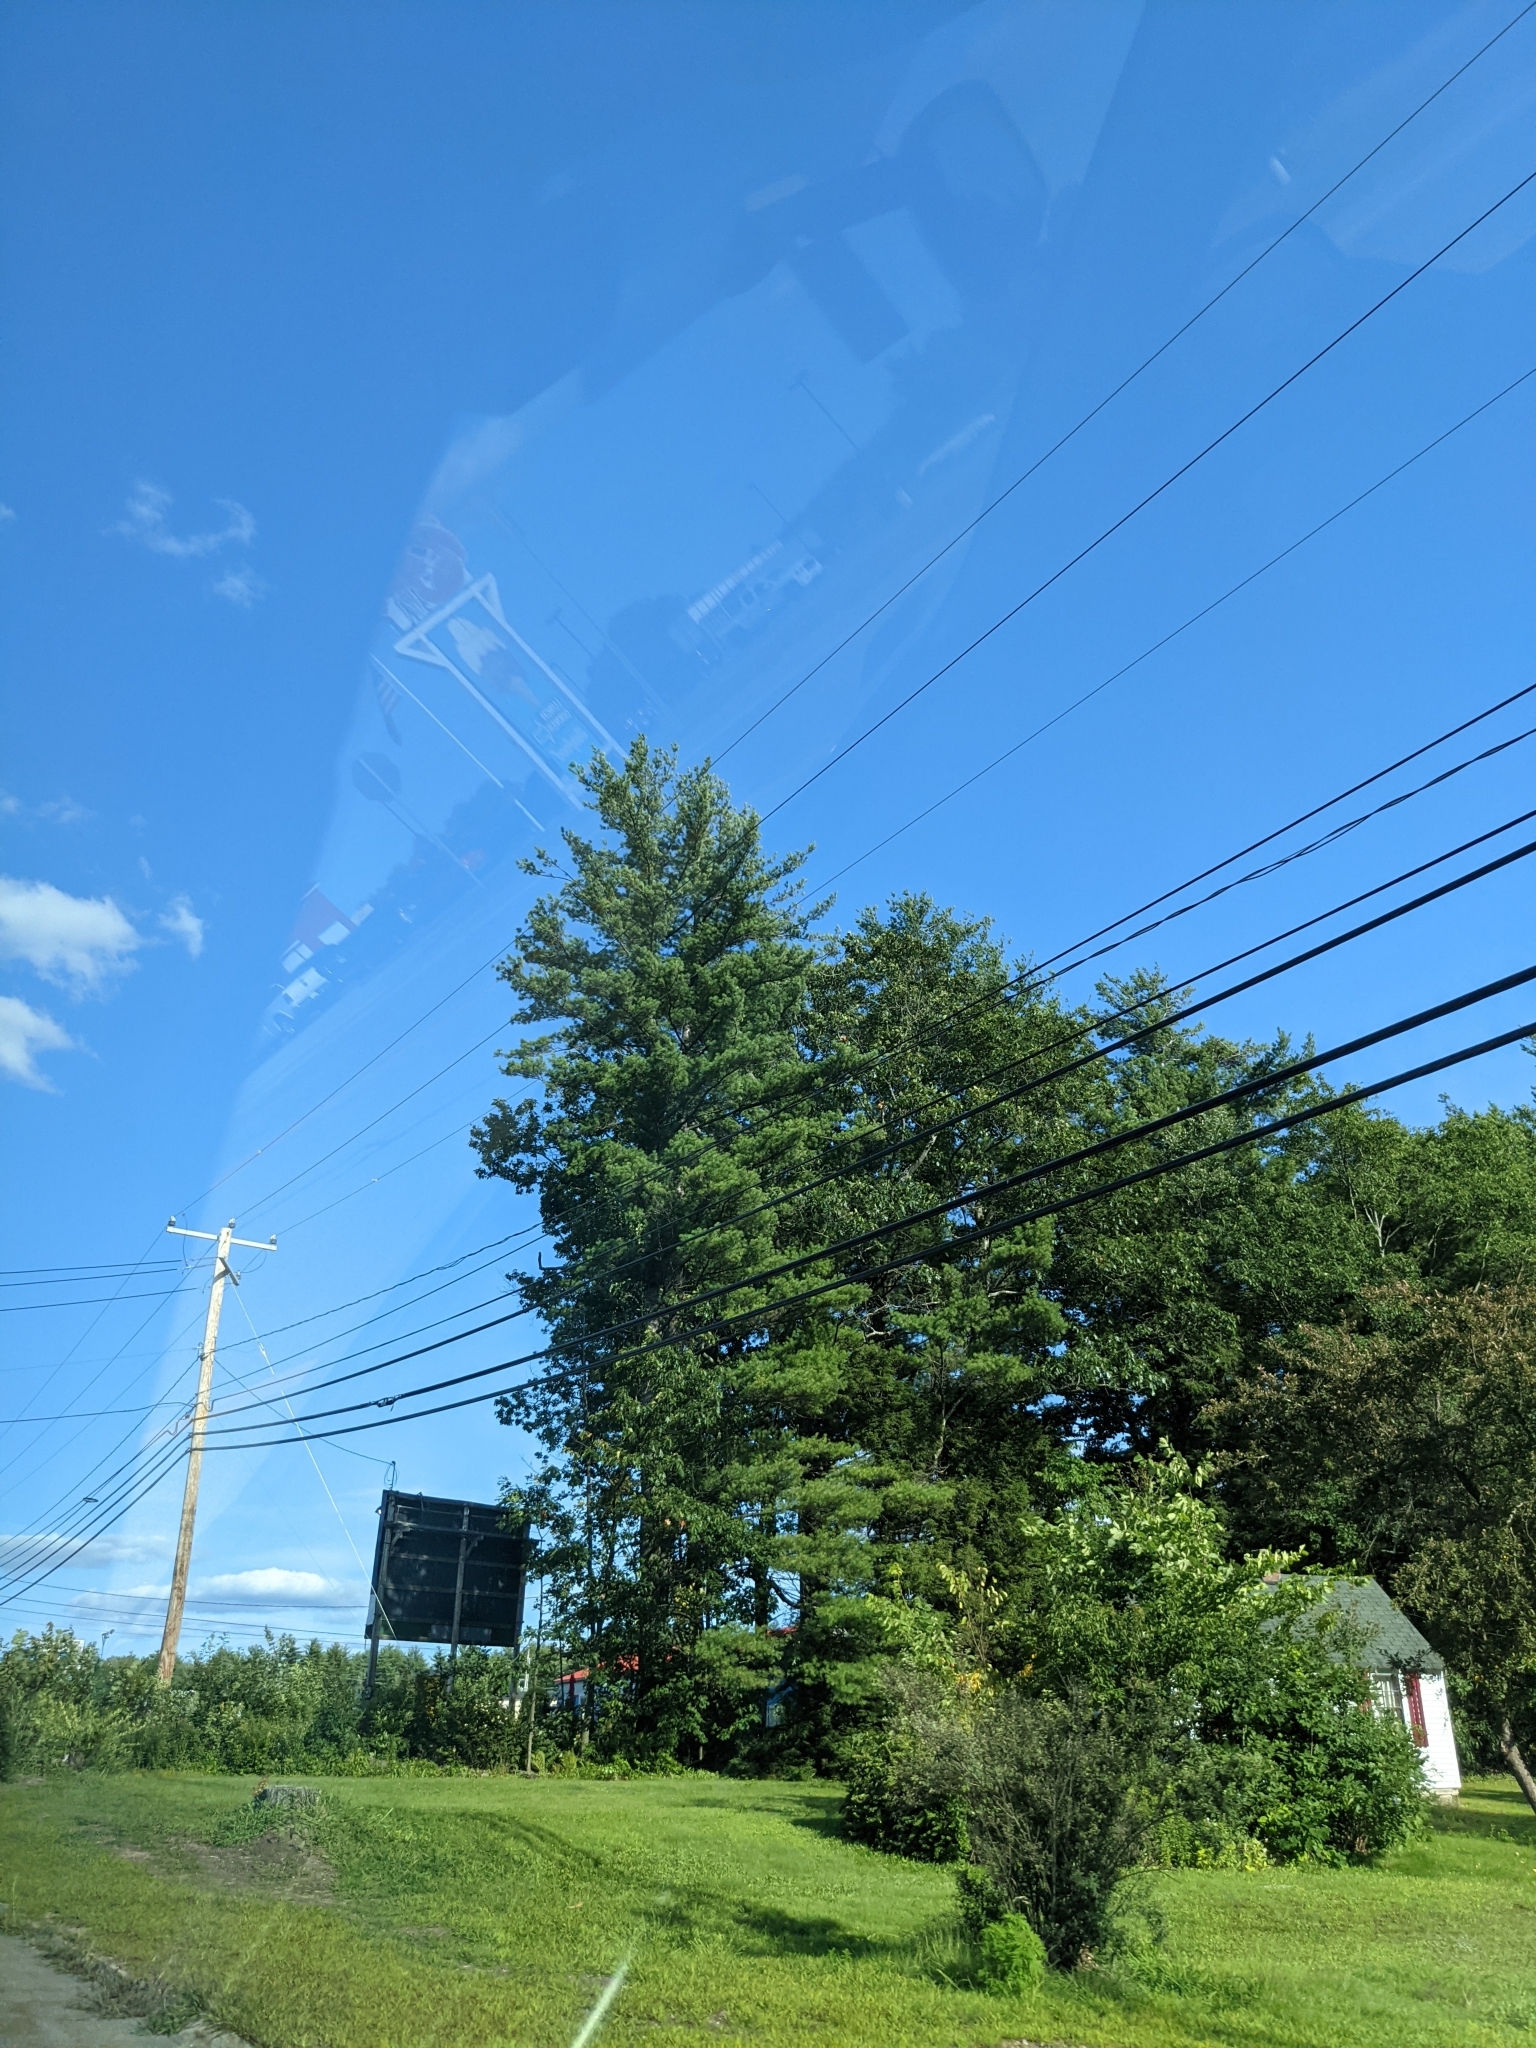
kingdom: Plantae
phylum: Tracheophyta
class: Pinopsida
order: Pinales
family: Pinaceae
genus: Pinus
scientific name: Pinus strobus
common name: Weymouth pine
